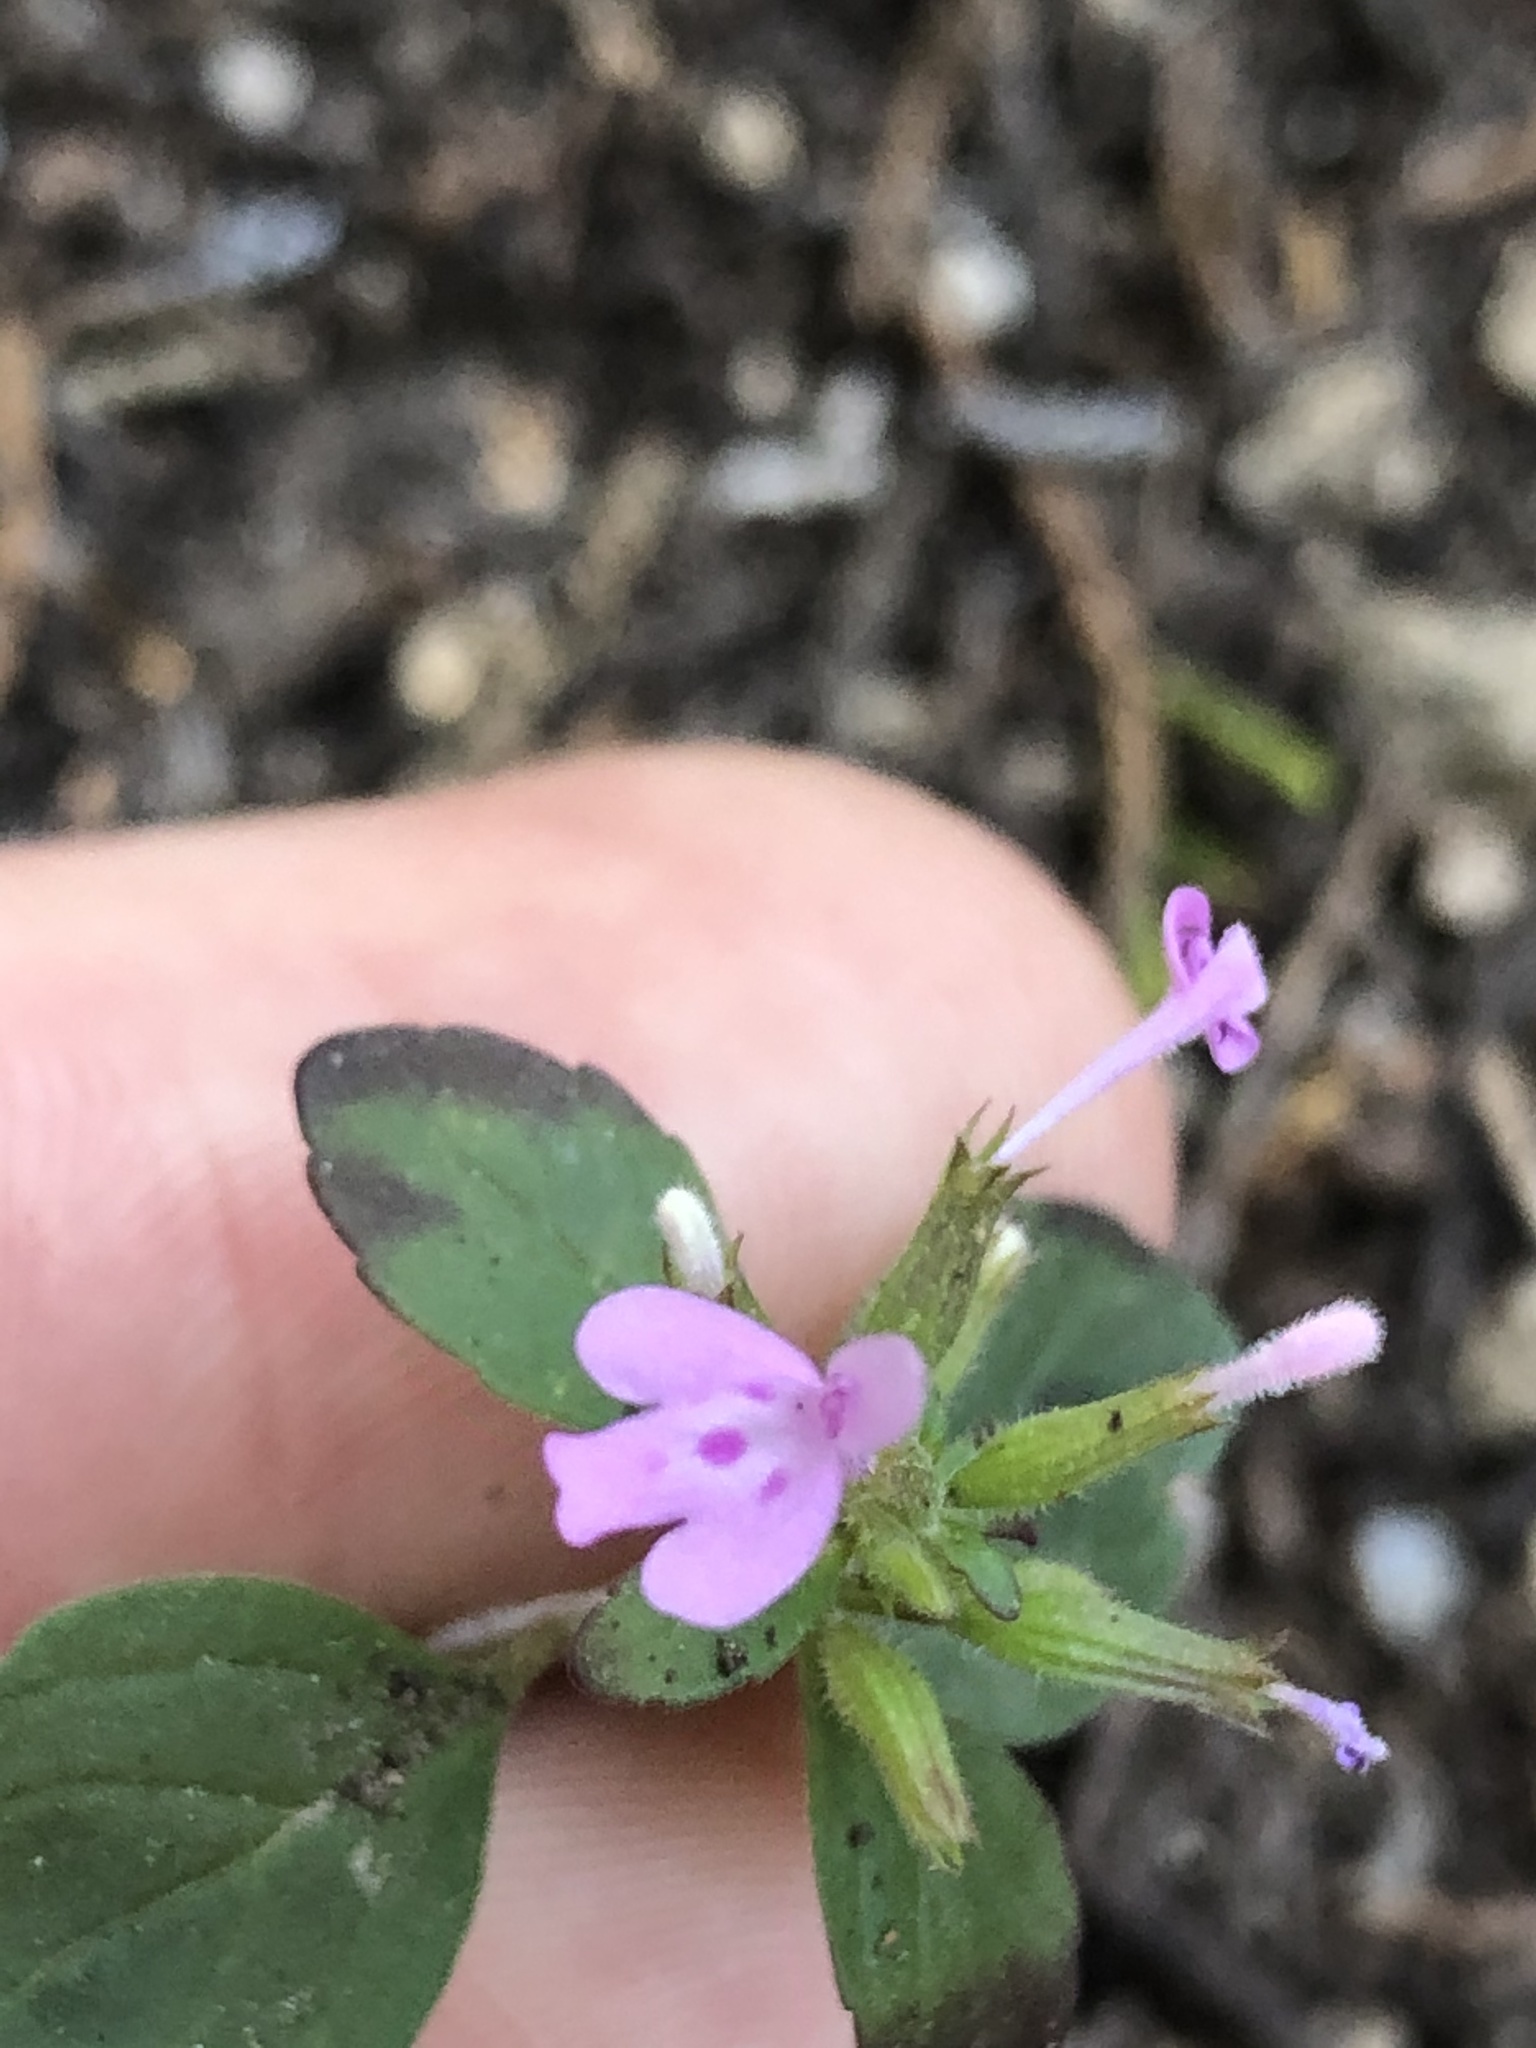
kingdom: Plantae
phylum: Tracheophyta
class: Magnoliopsida
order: Lamiales
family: Lamiaceae
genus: Hedeoma
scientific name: Hedeoma acinoides
